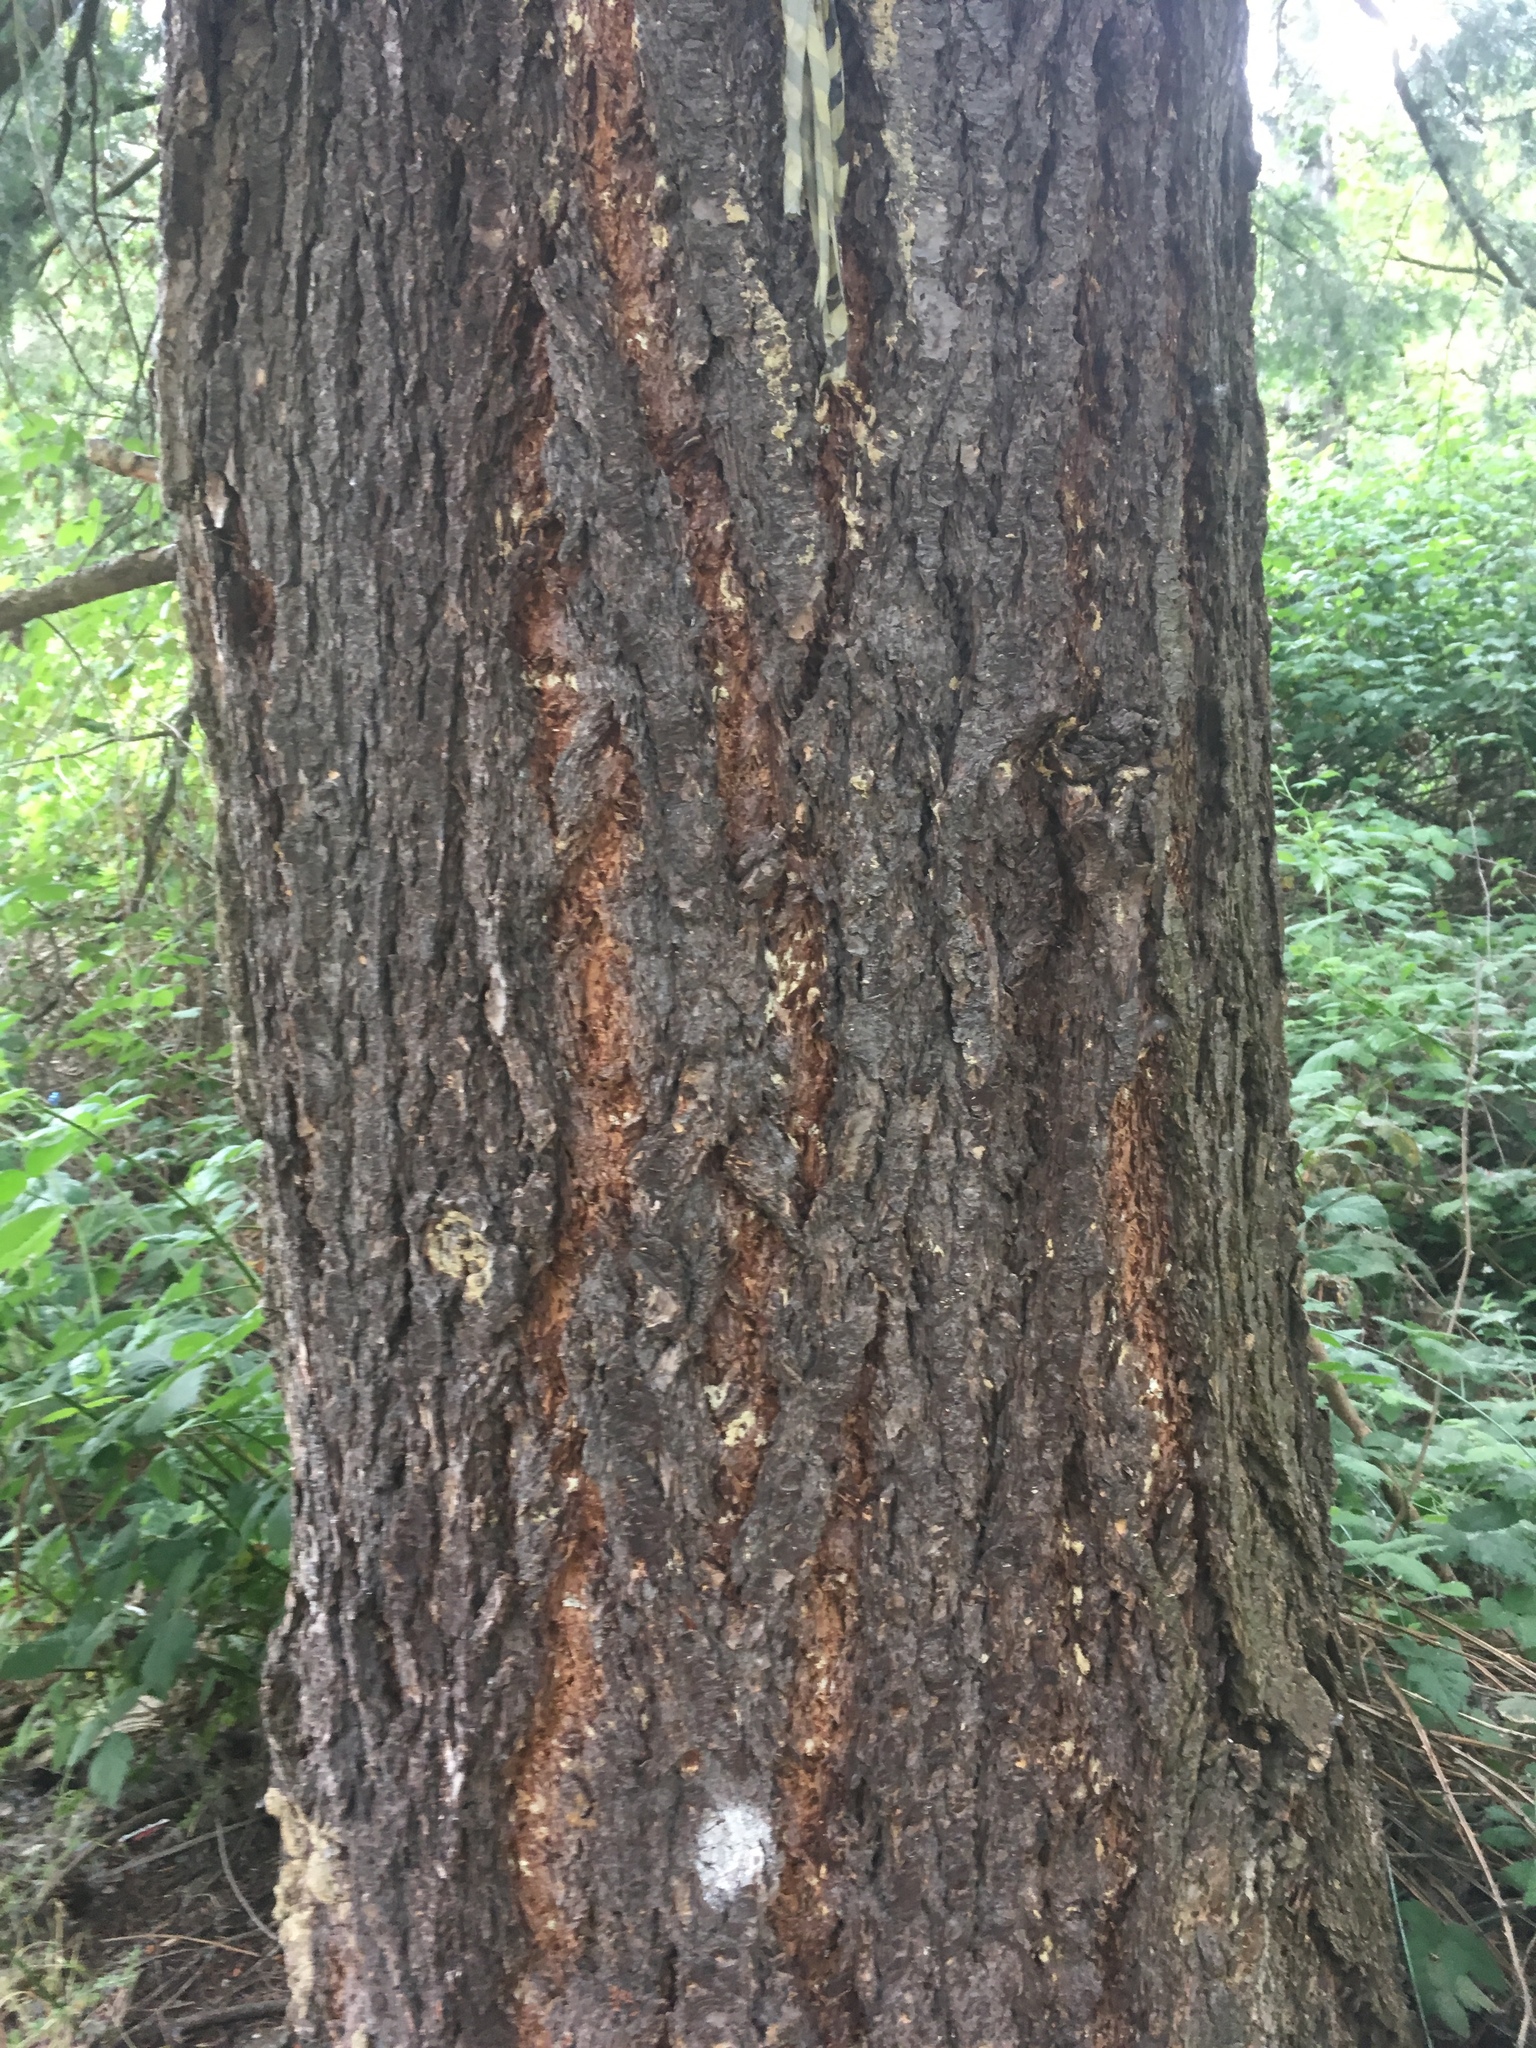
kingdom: Plantae
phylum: Tracheophyta
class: Pinopsida
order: Pinales
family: Pinaceae
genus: Pseudotsuga
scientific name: Pseudotsuga menziesii
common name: Douglas fir
